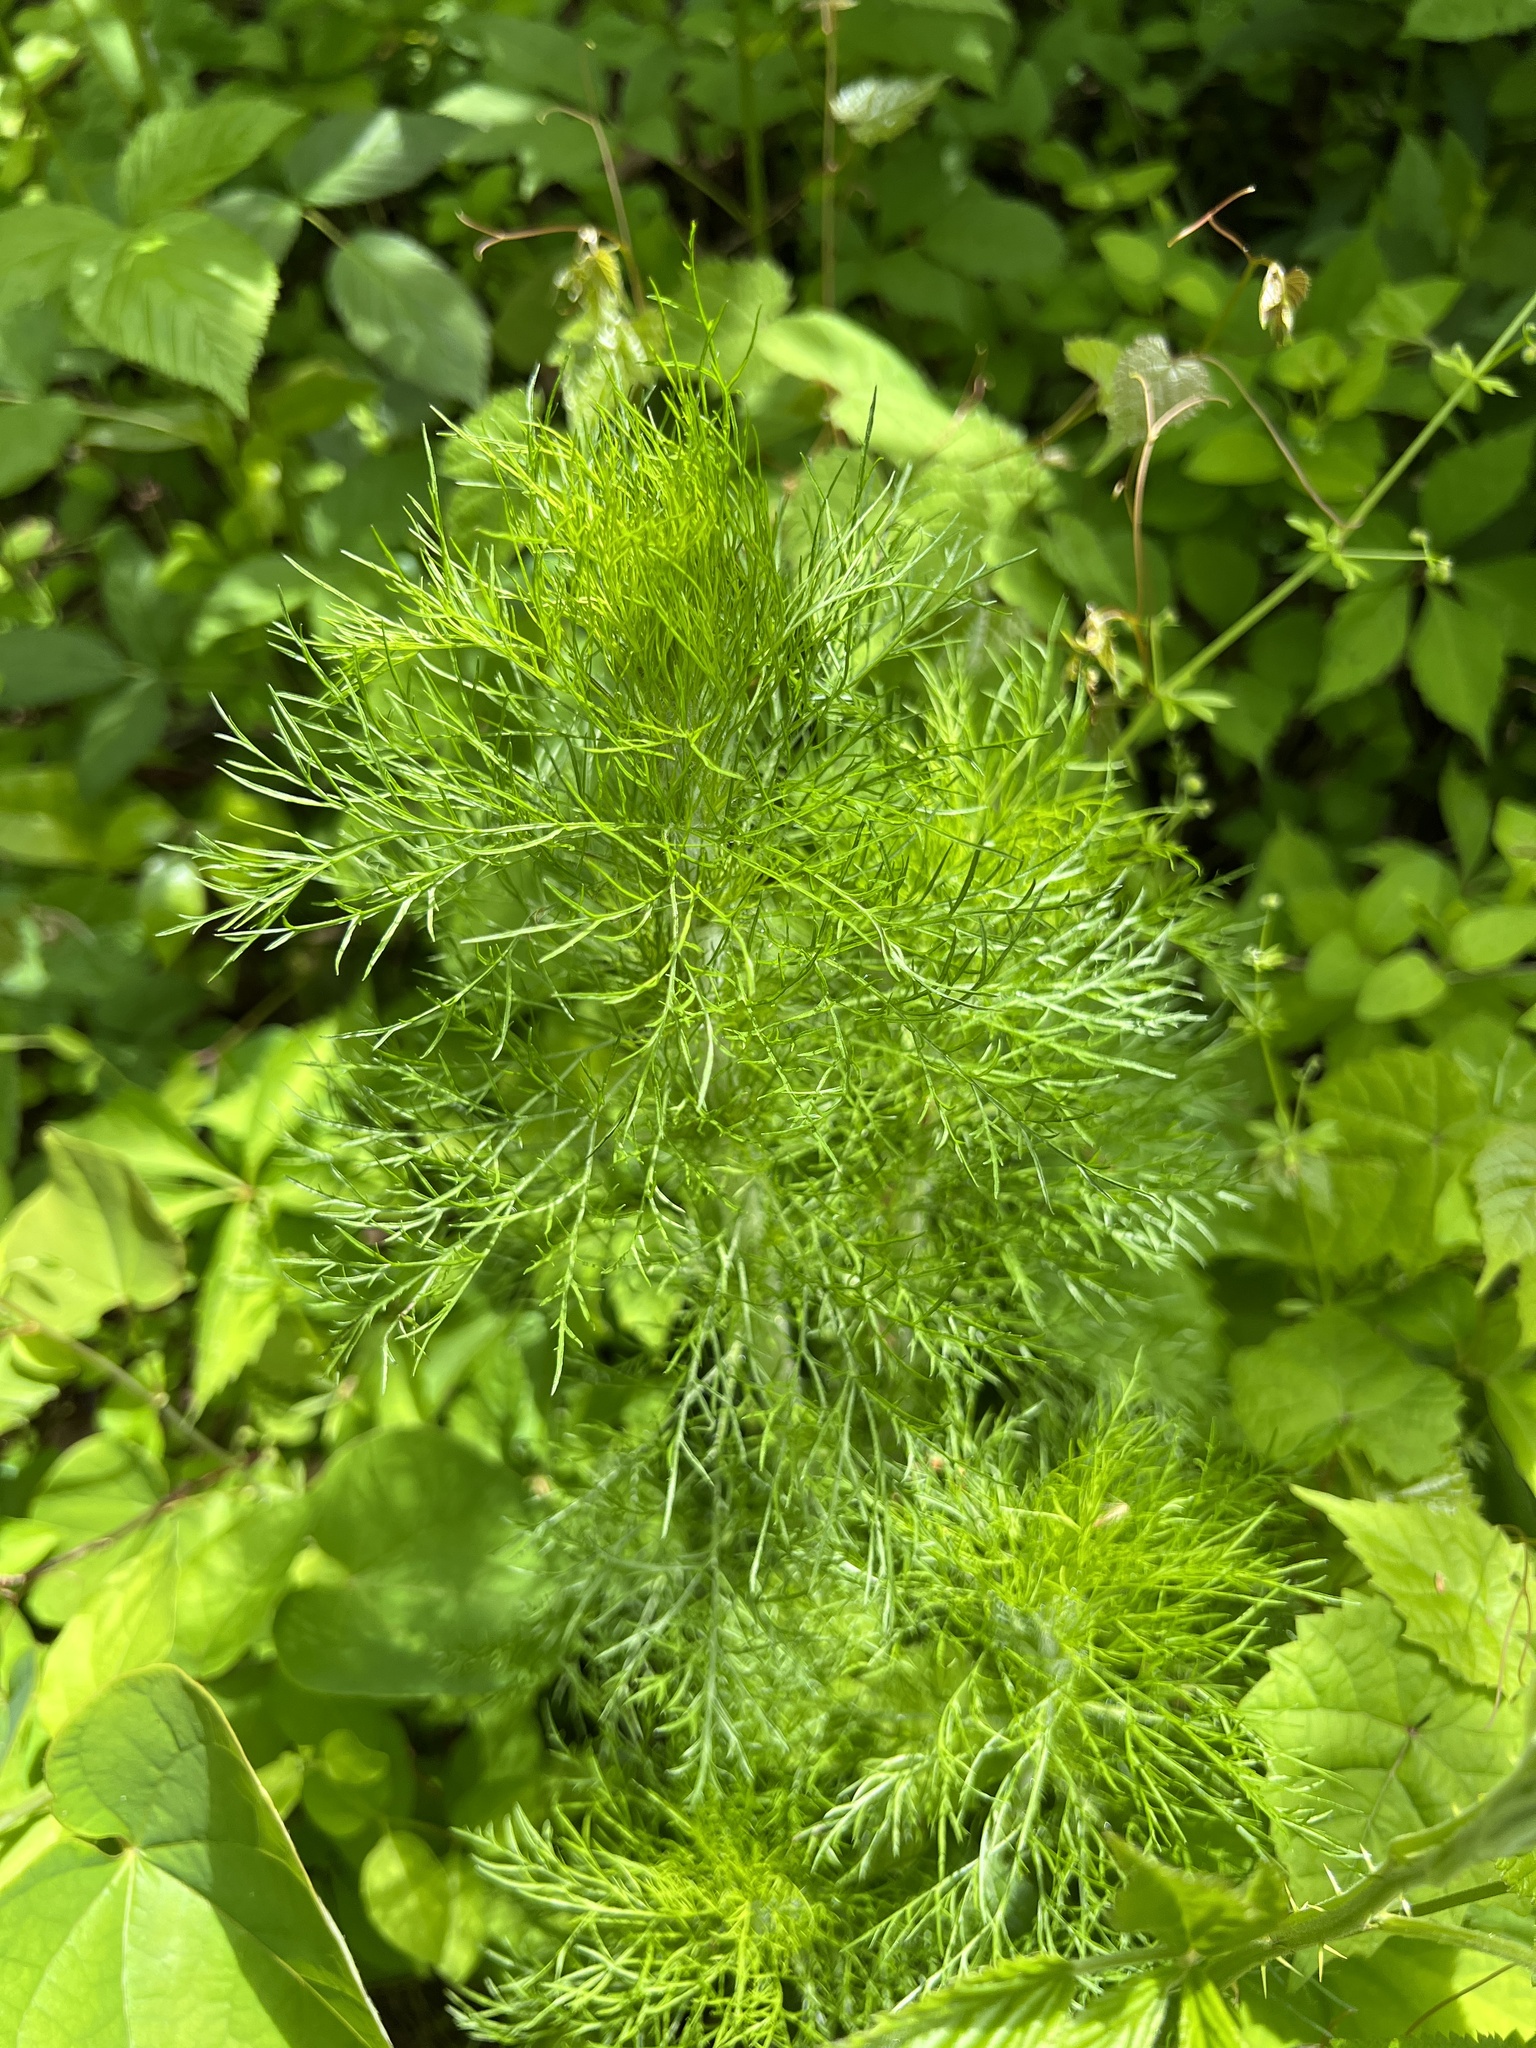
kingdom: Plantae
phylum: Tracheophyta
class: Magnoliopsida
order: Asterales
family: Asteraceae
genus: Eupatorium
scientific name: Eupatorium capillifolium
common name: Dog-fennel
